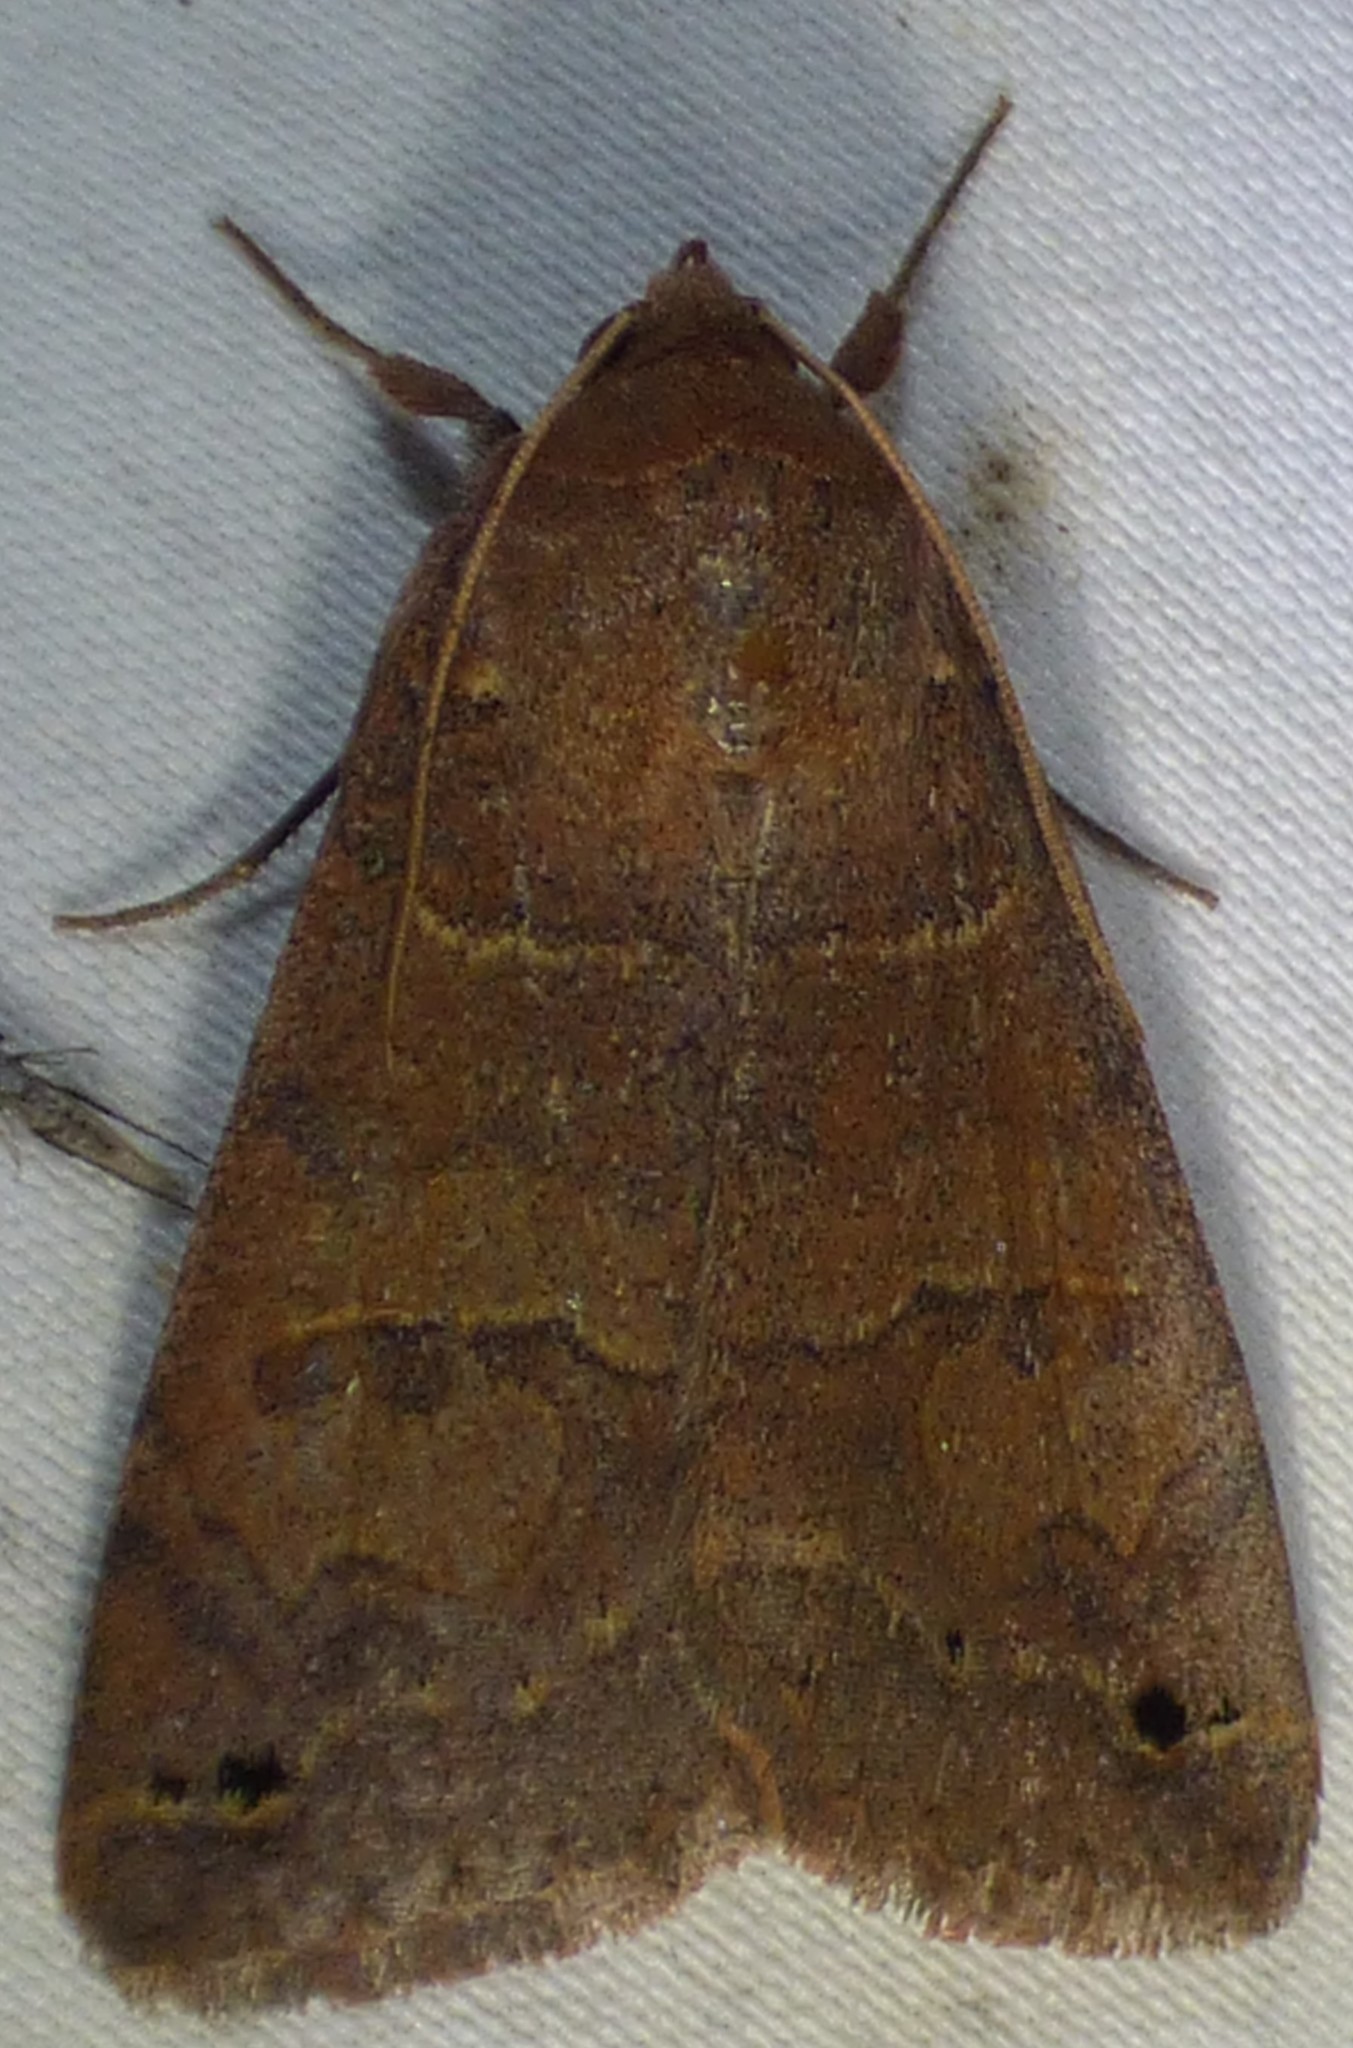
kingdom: Animalia
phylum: Arthropoda
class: Insecta
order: Lepidoptera
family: Erebidae
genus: Cissusa
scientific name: Cissusa spadix
